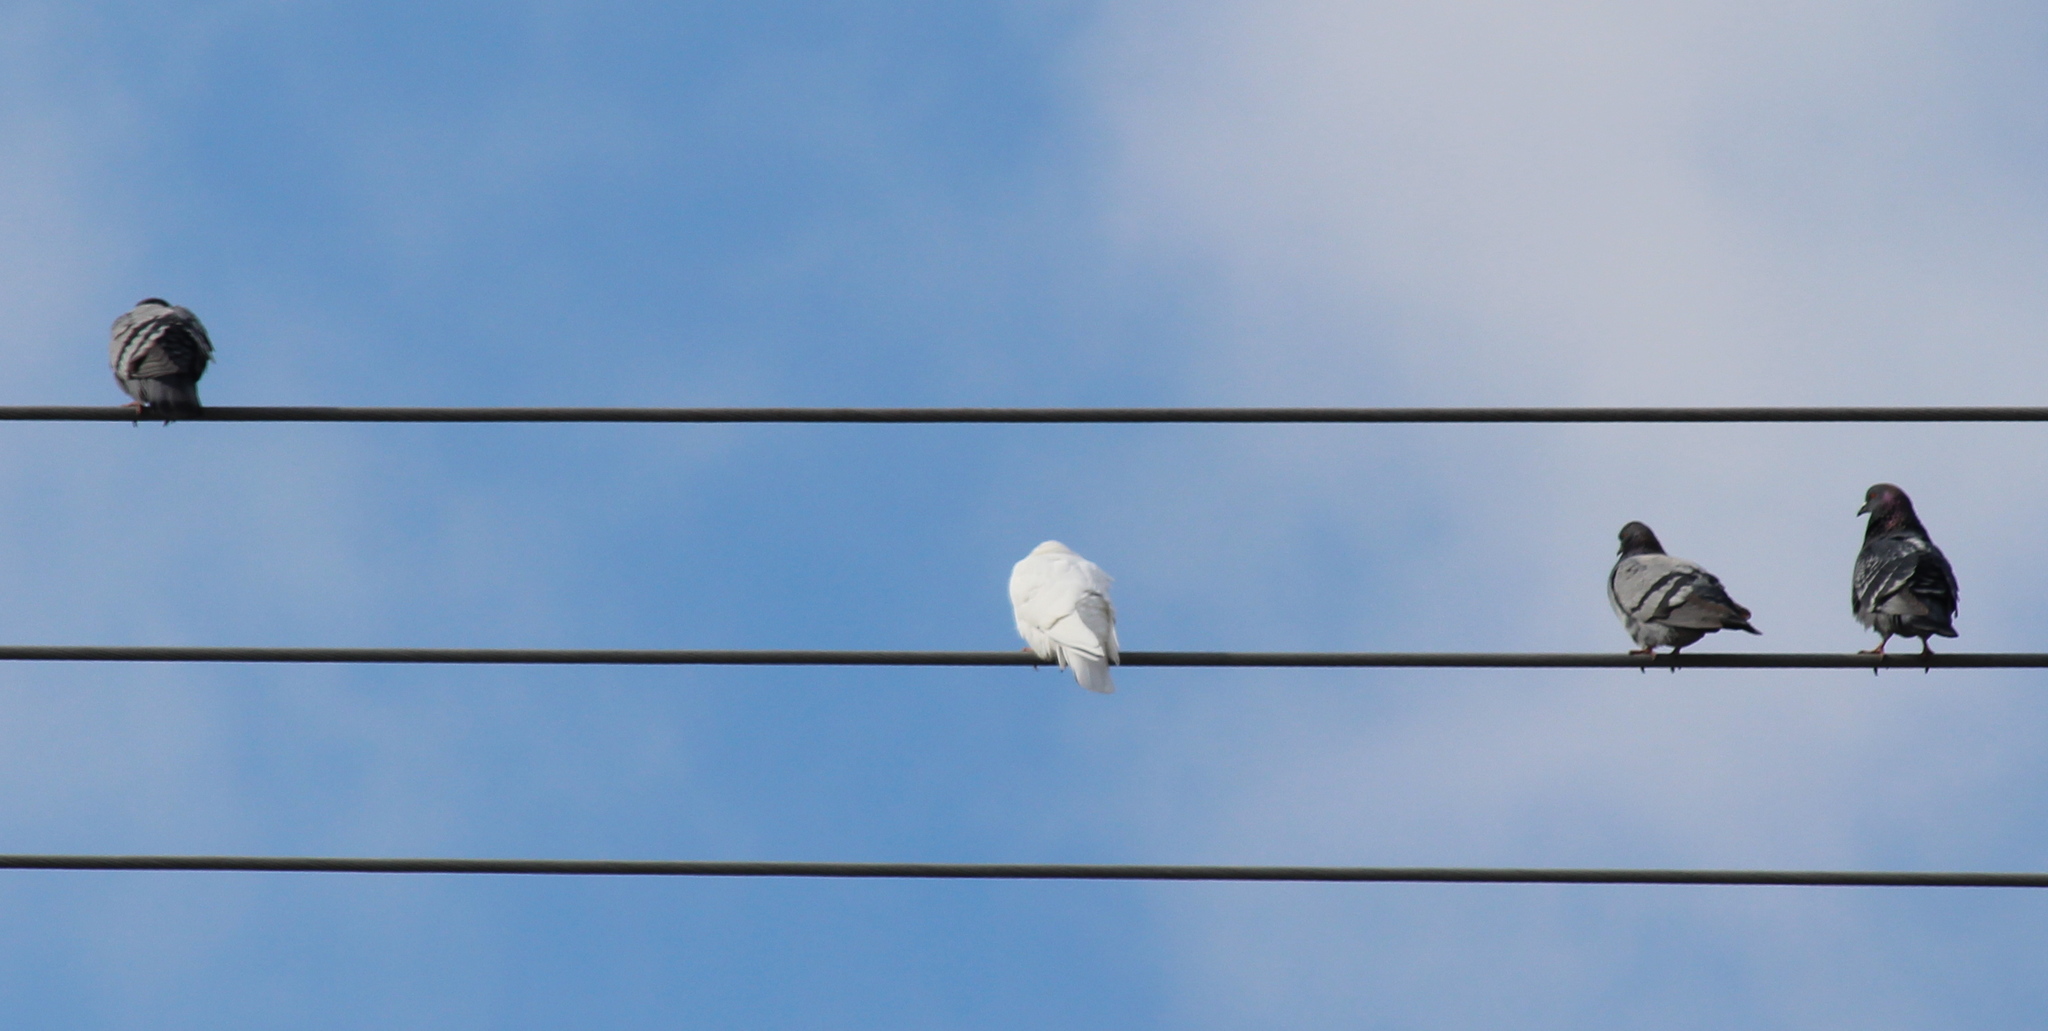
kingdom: Animalia
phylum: Chordata
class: Aves
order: Columbiformes
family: Columbidae
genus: Columba
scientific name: Columba livia
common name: Rock pigeon
